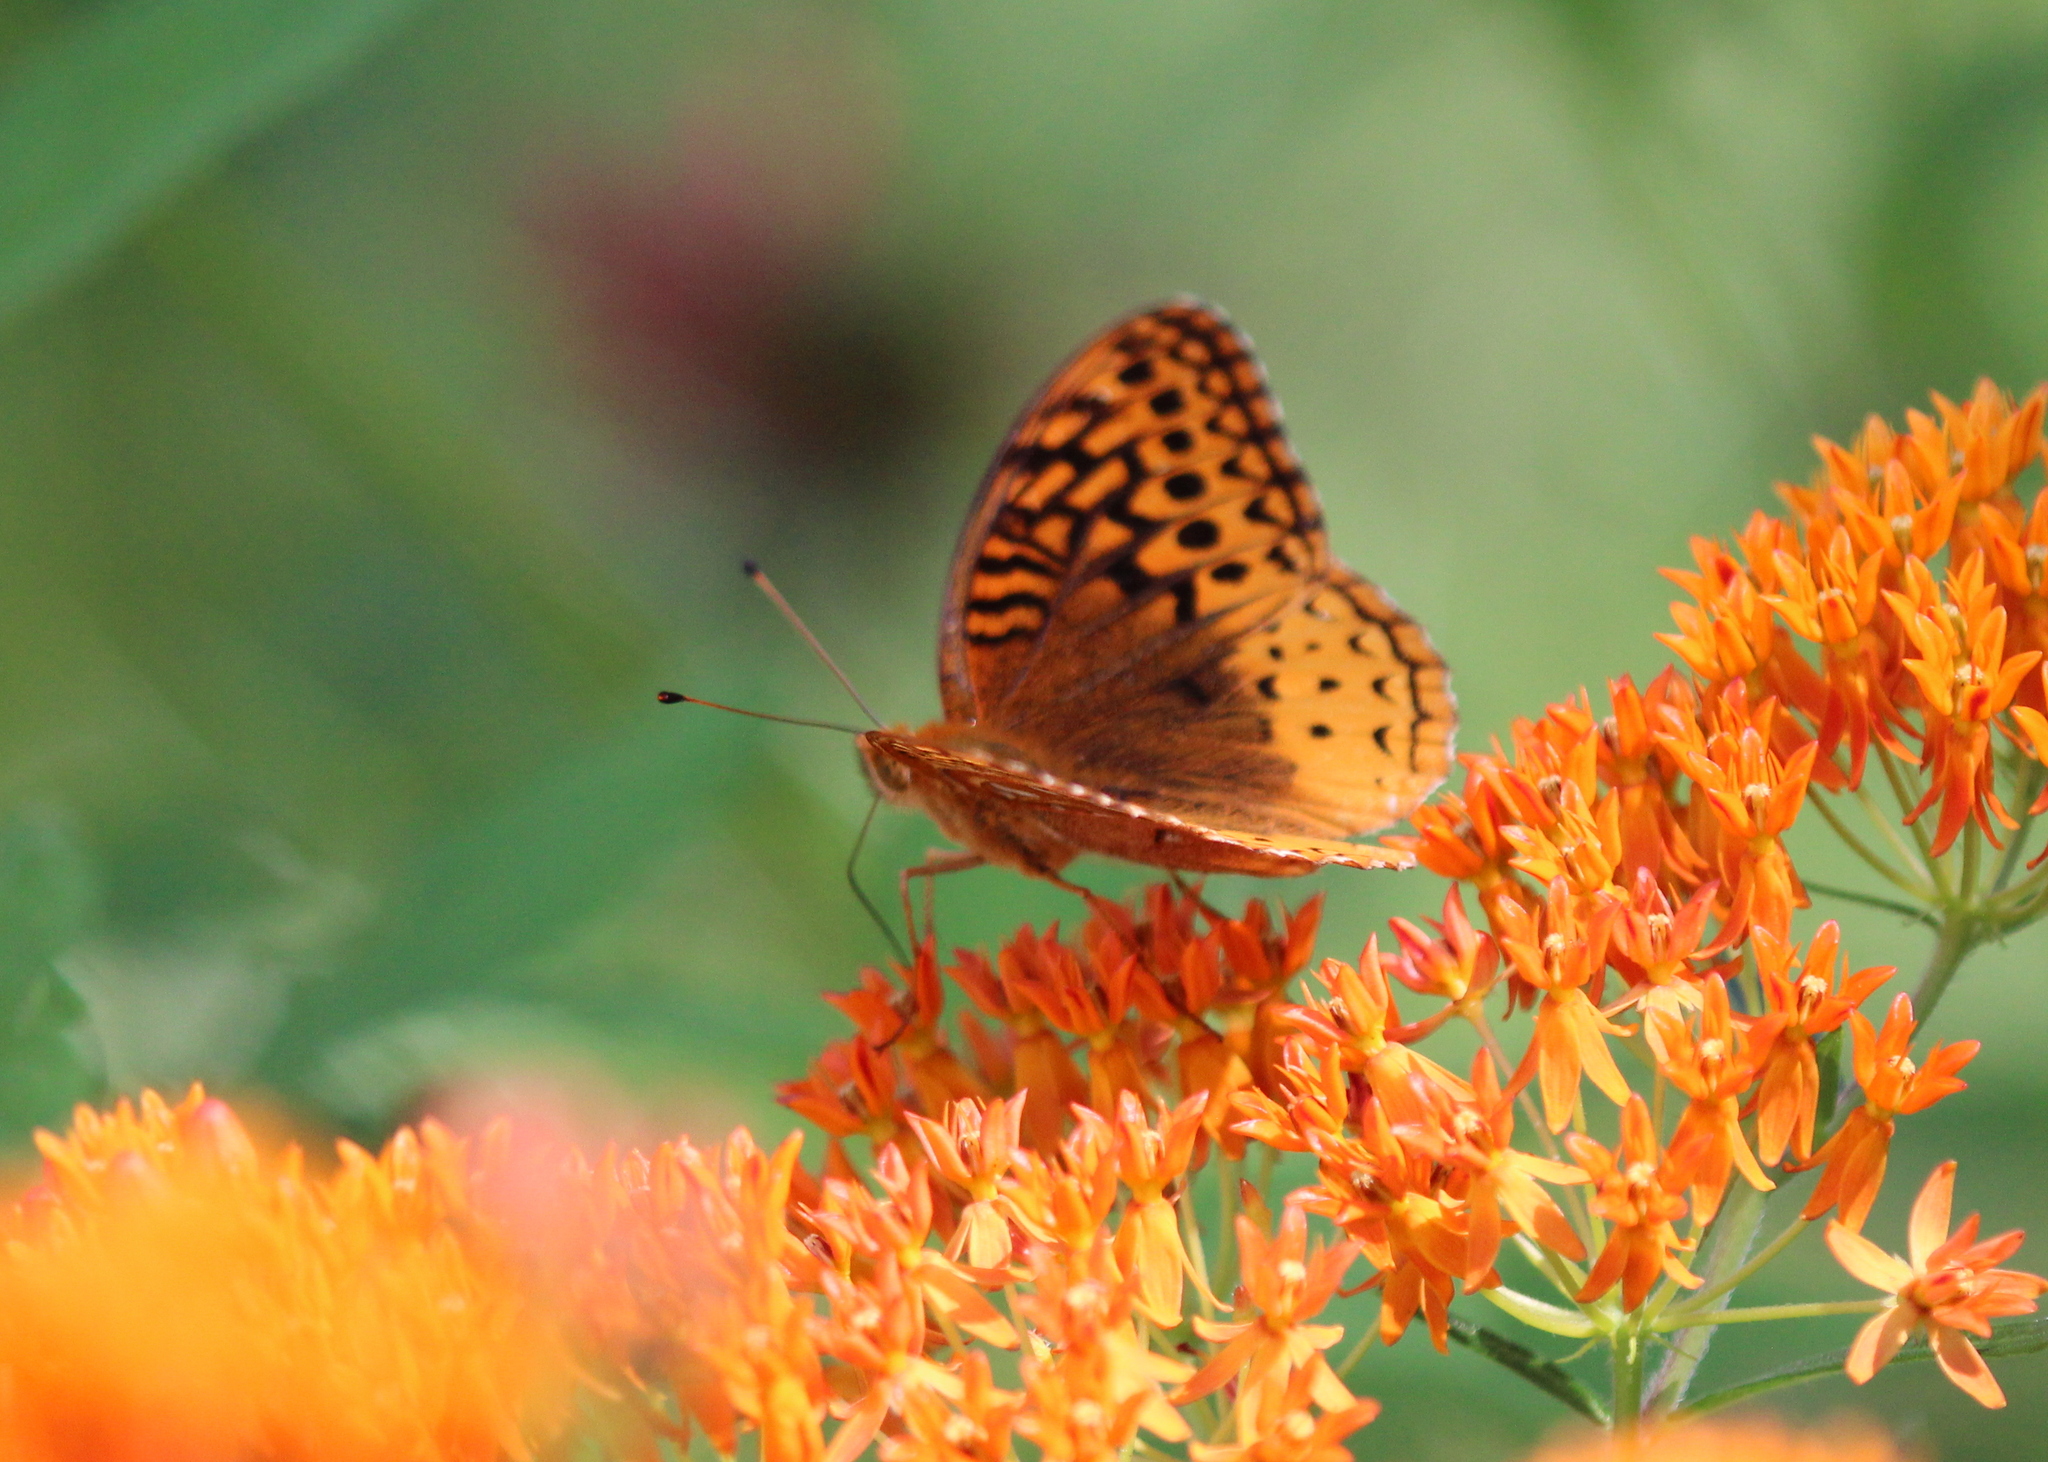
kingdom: Animalia
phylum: Arthropoda
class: Insecta
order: Lepidoptera
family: Nymphalidae
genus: Speyeria
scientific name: Speyeria cybele
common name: Great spangled fritillary
